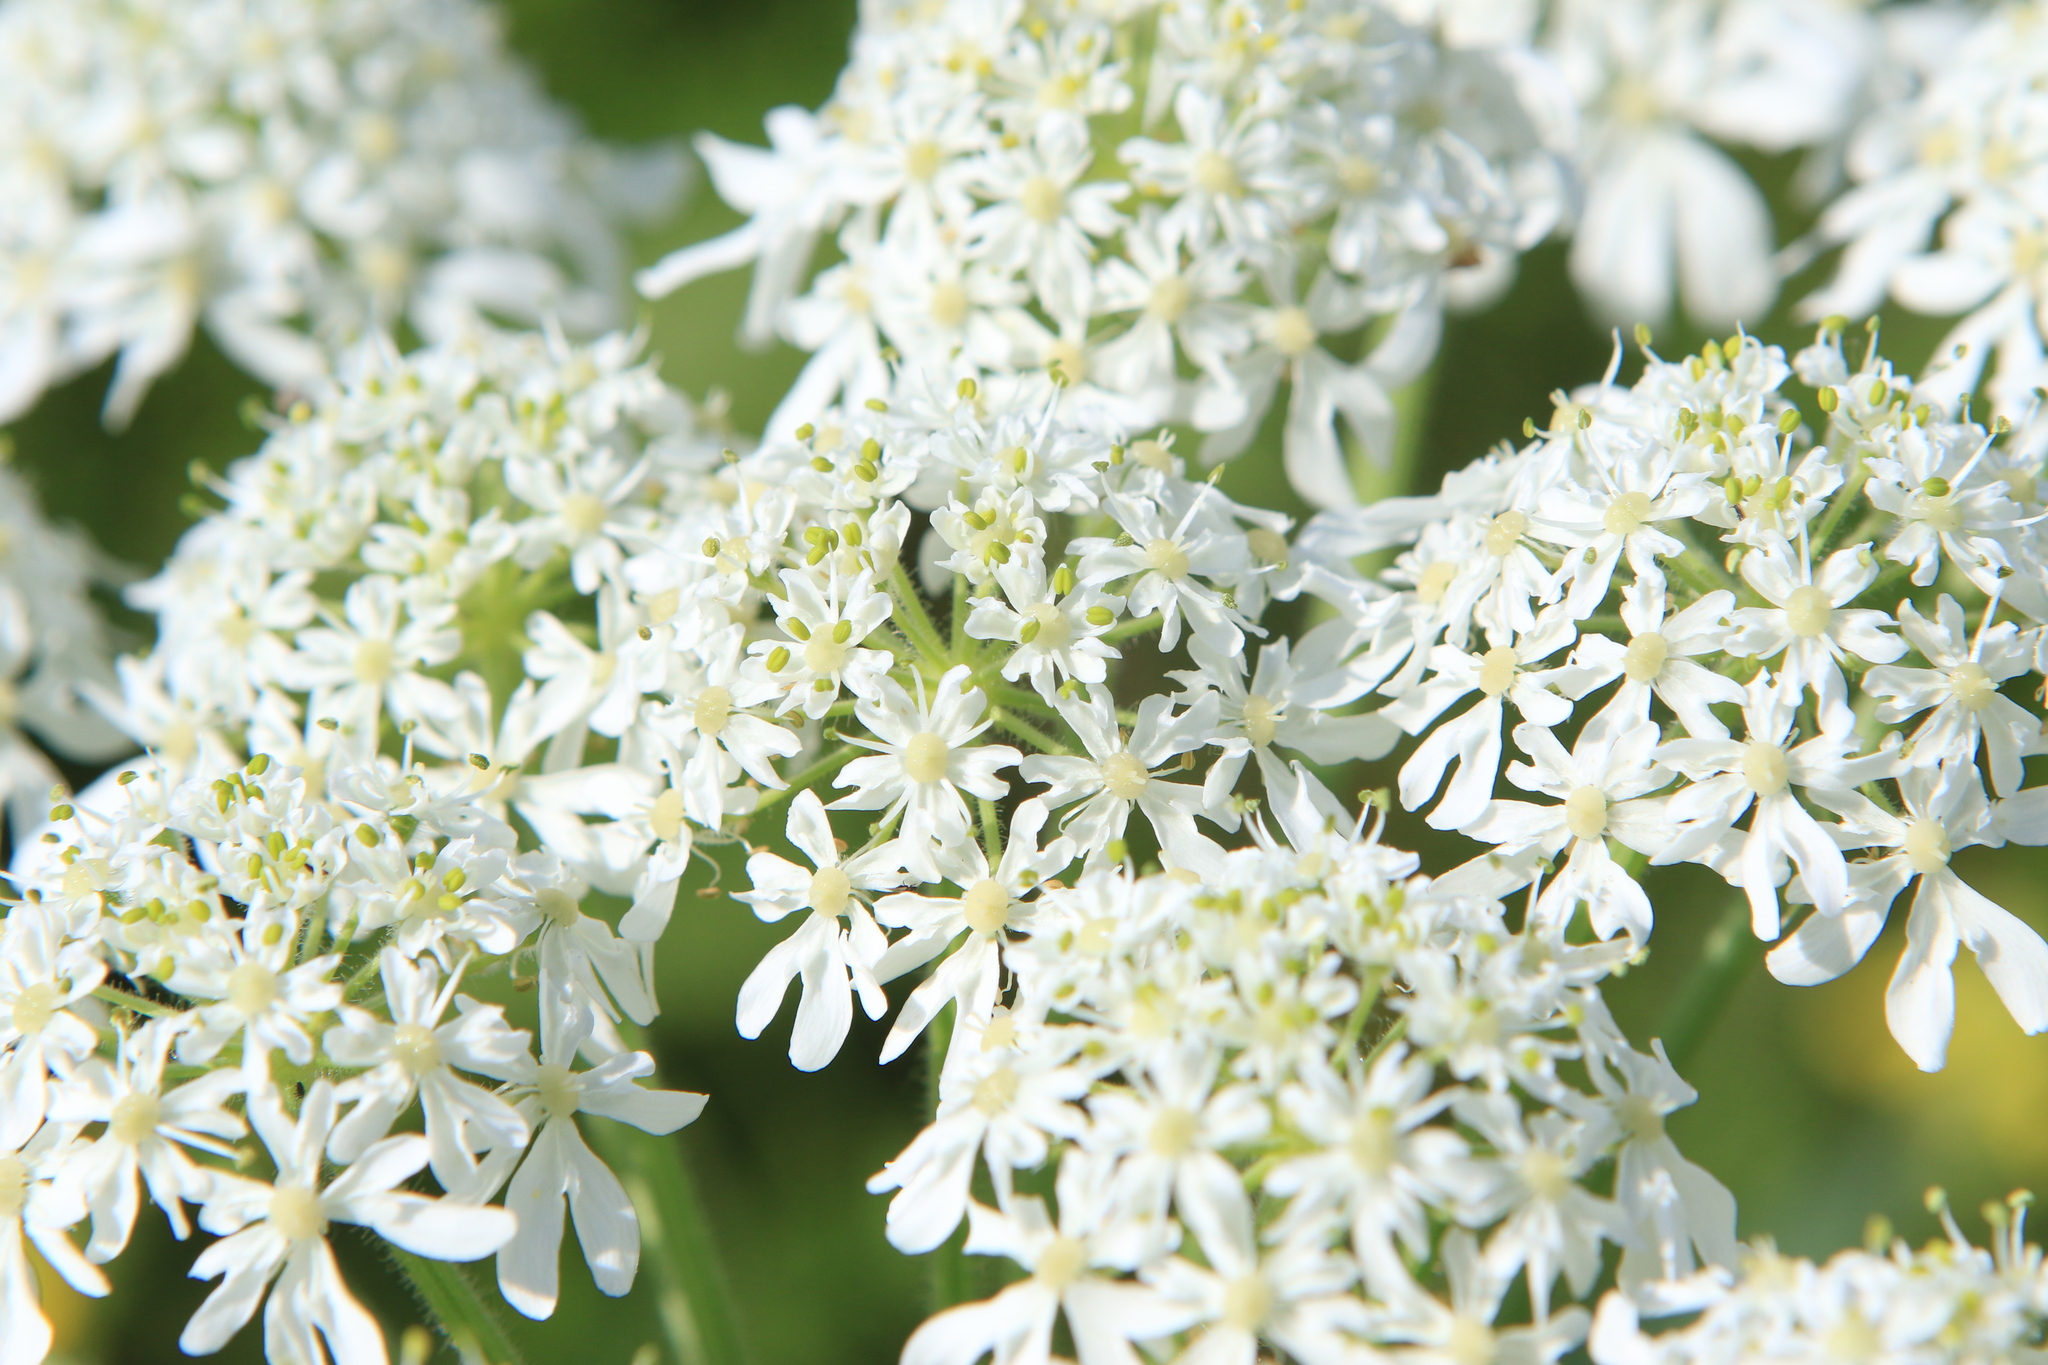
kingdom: Plantae
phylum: Tracheophyta
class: Magnoliopsida
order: Apiales
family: Apiaceae
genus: Heracleum
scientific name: Heracleum dissectum
